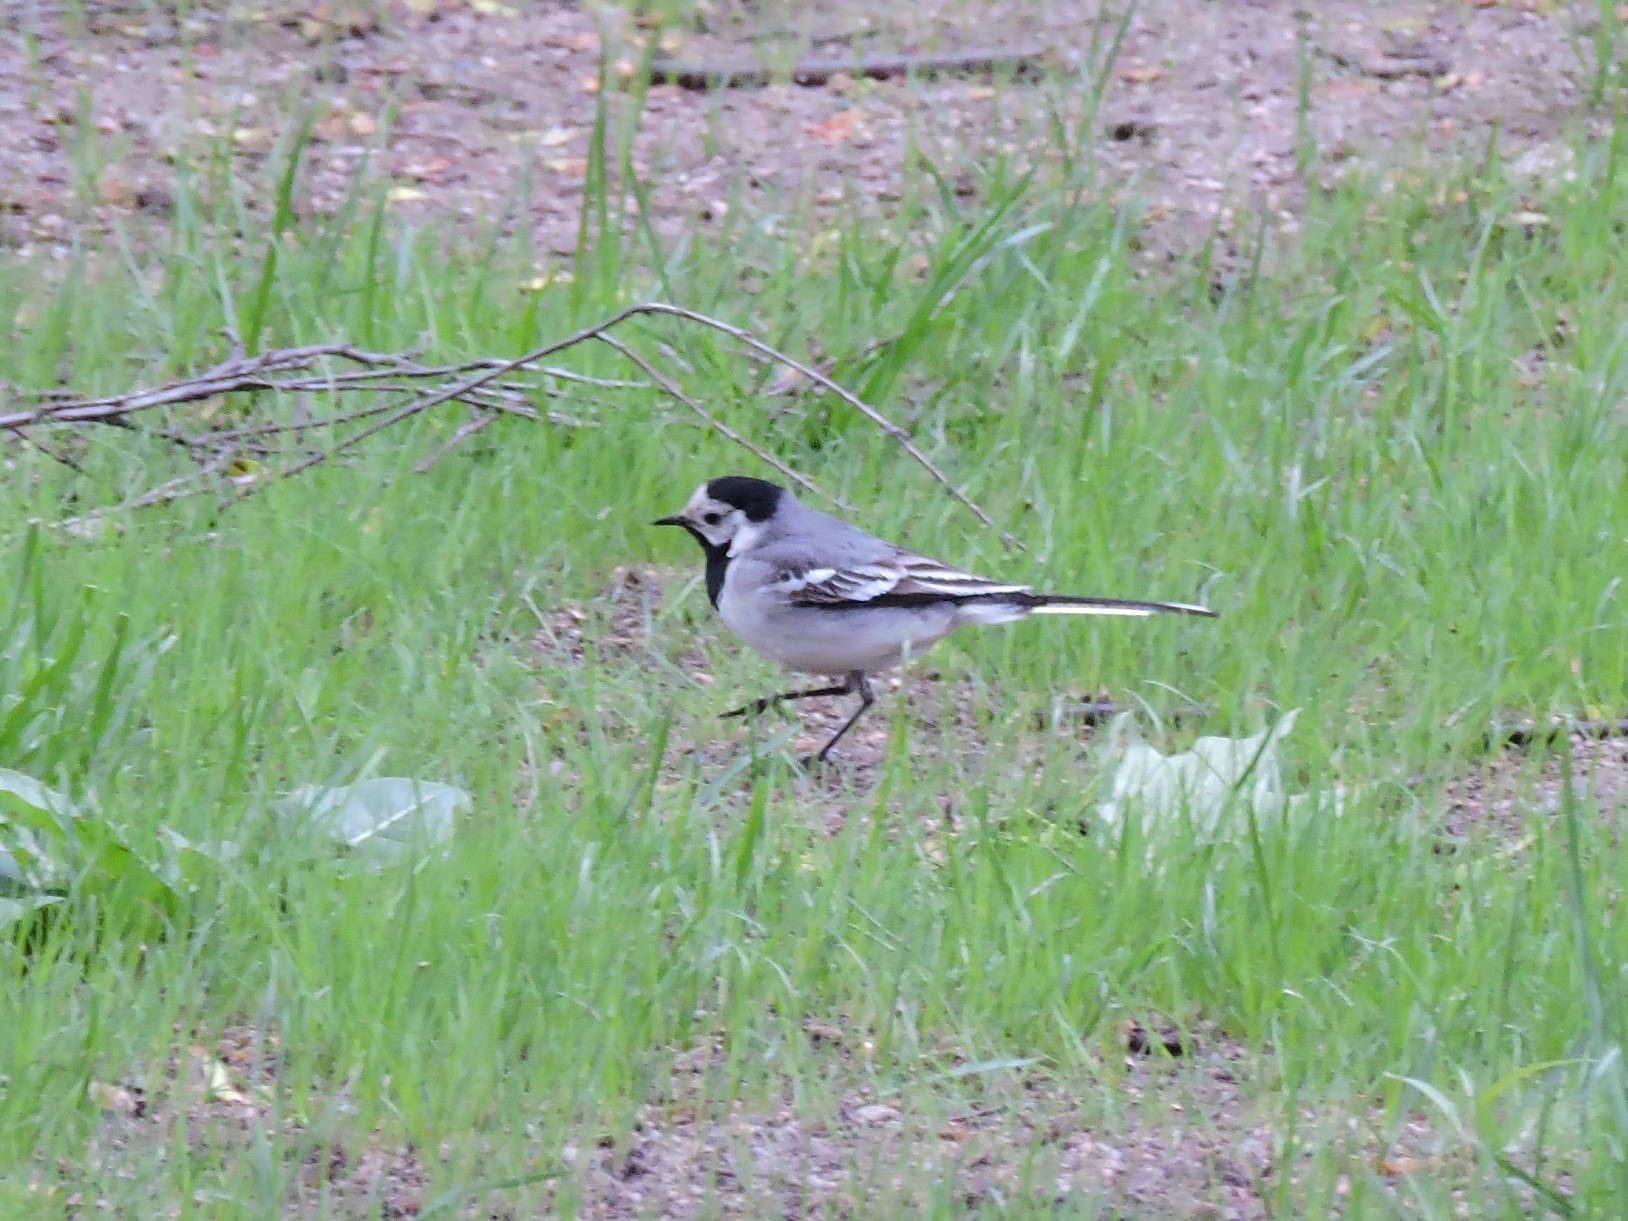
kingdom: Animalia
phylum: Chordata
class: Aves
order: Passeriformes
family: Motacillidae
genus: Motacilla
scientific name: Motacilla alba
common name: White wagtail
